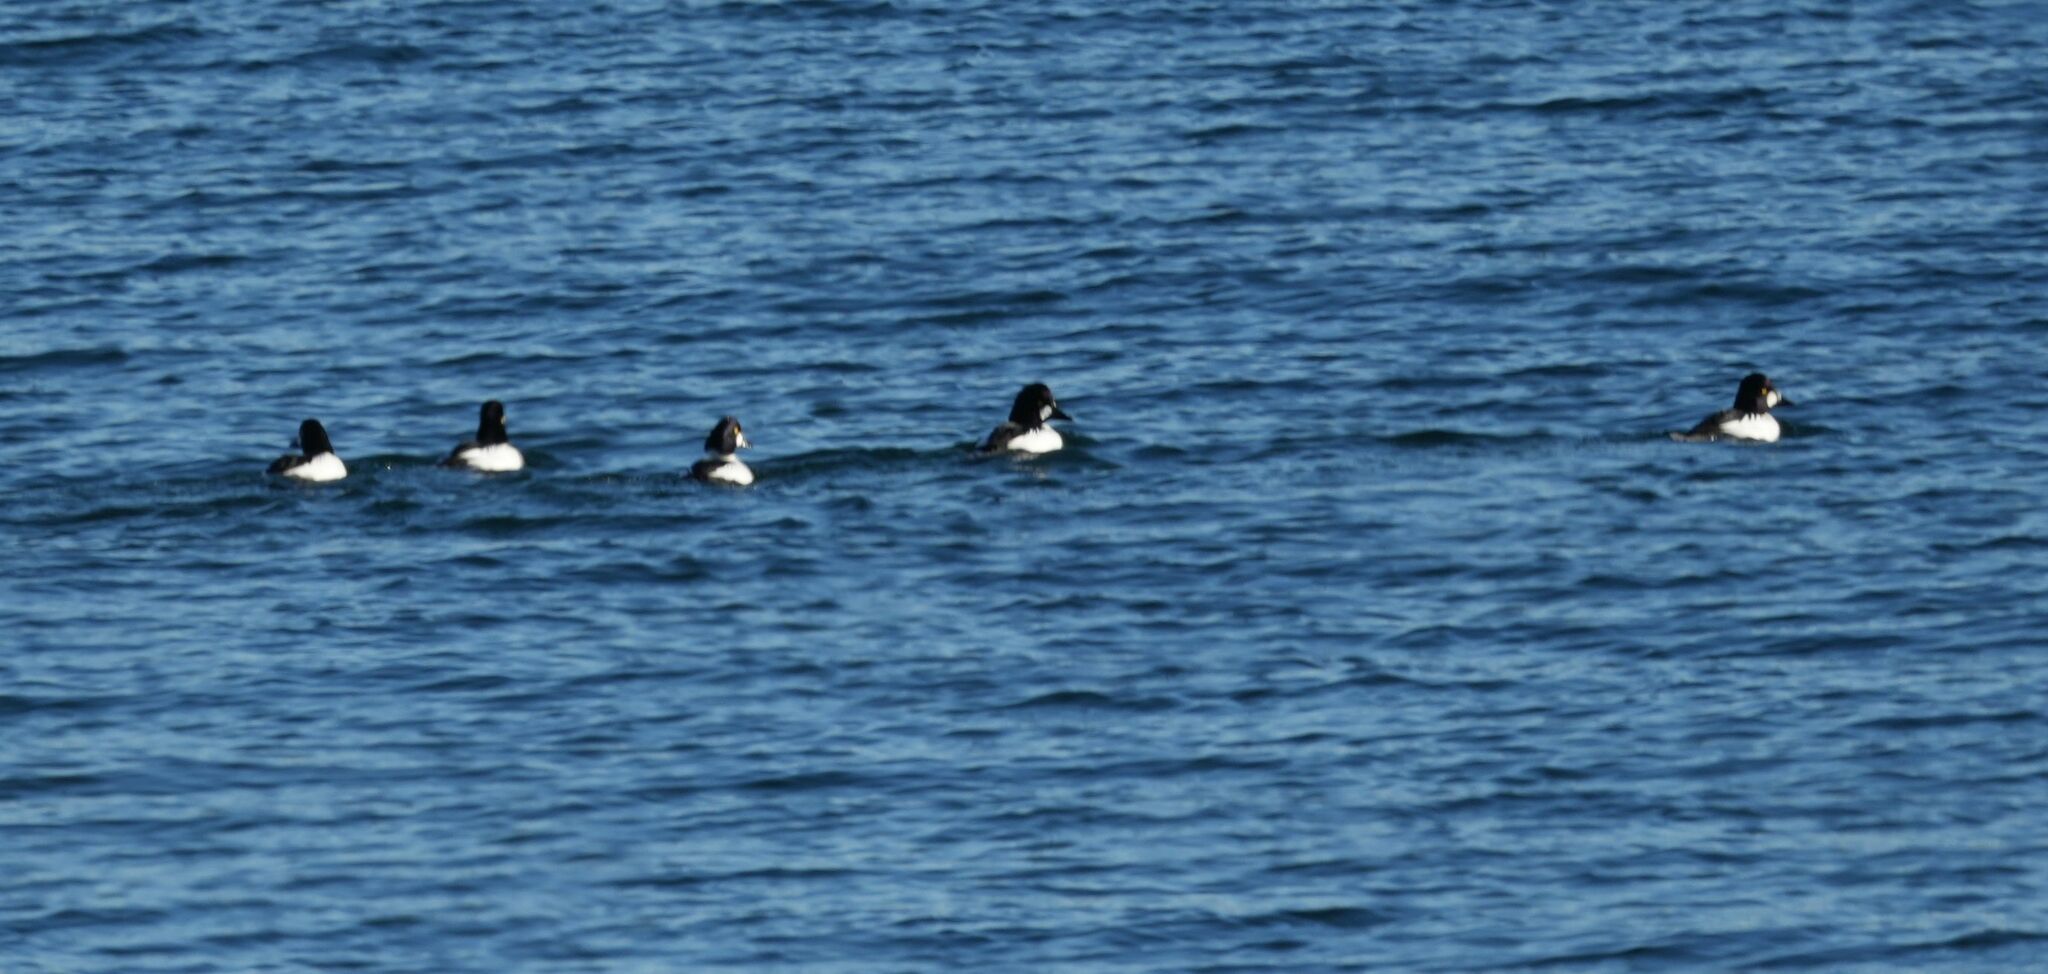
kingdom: Animalia
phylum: Chordata
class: Aves
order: Anseriformes
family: Anatidae
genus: Bucephala
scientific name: Bucephala clangula
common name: Common goldeneye
